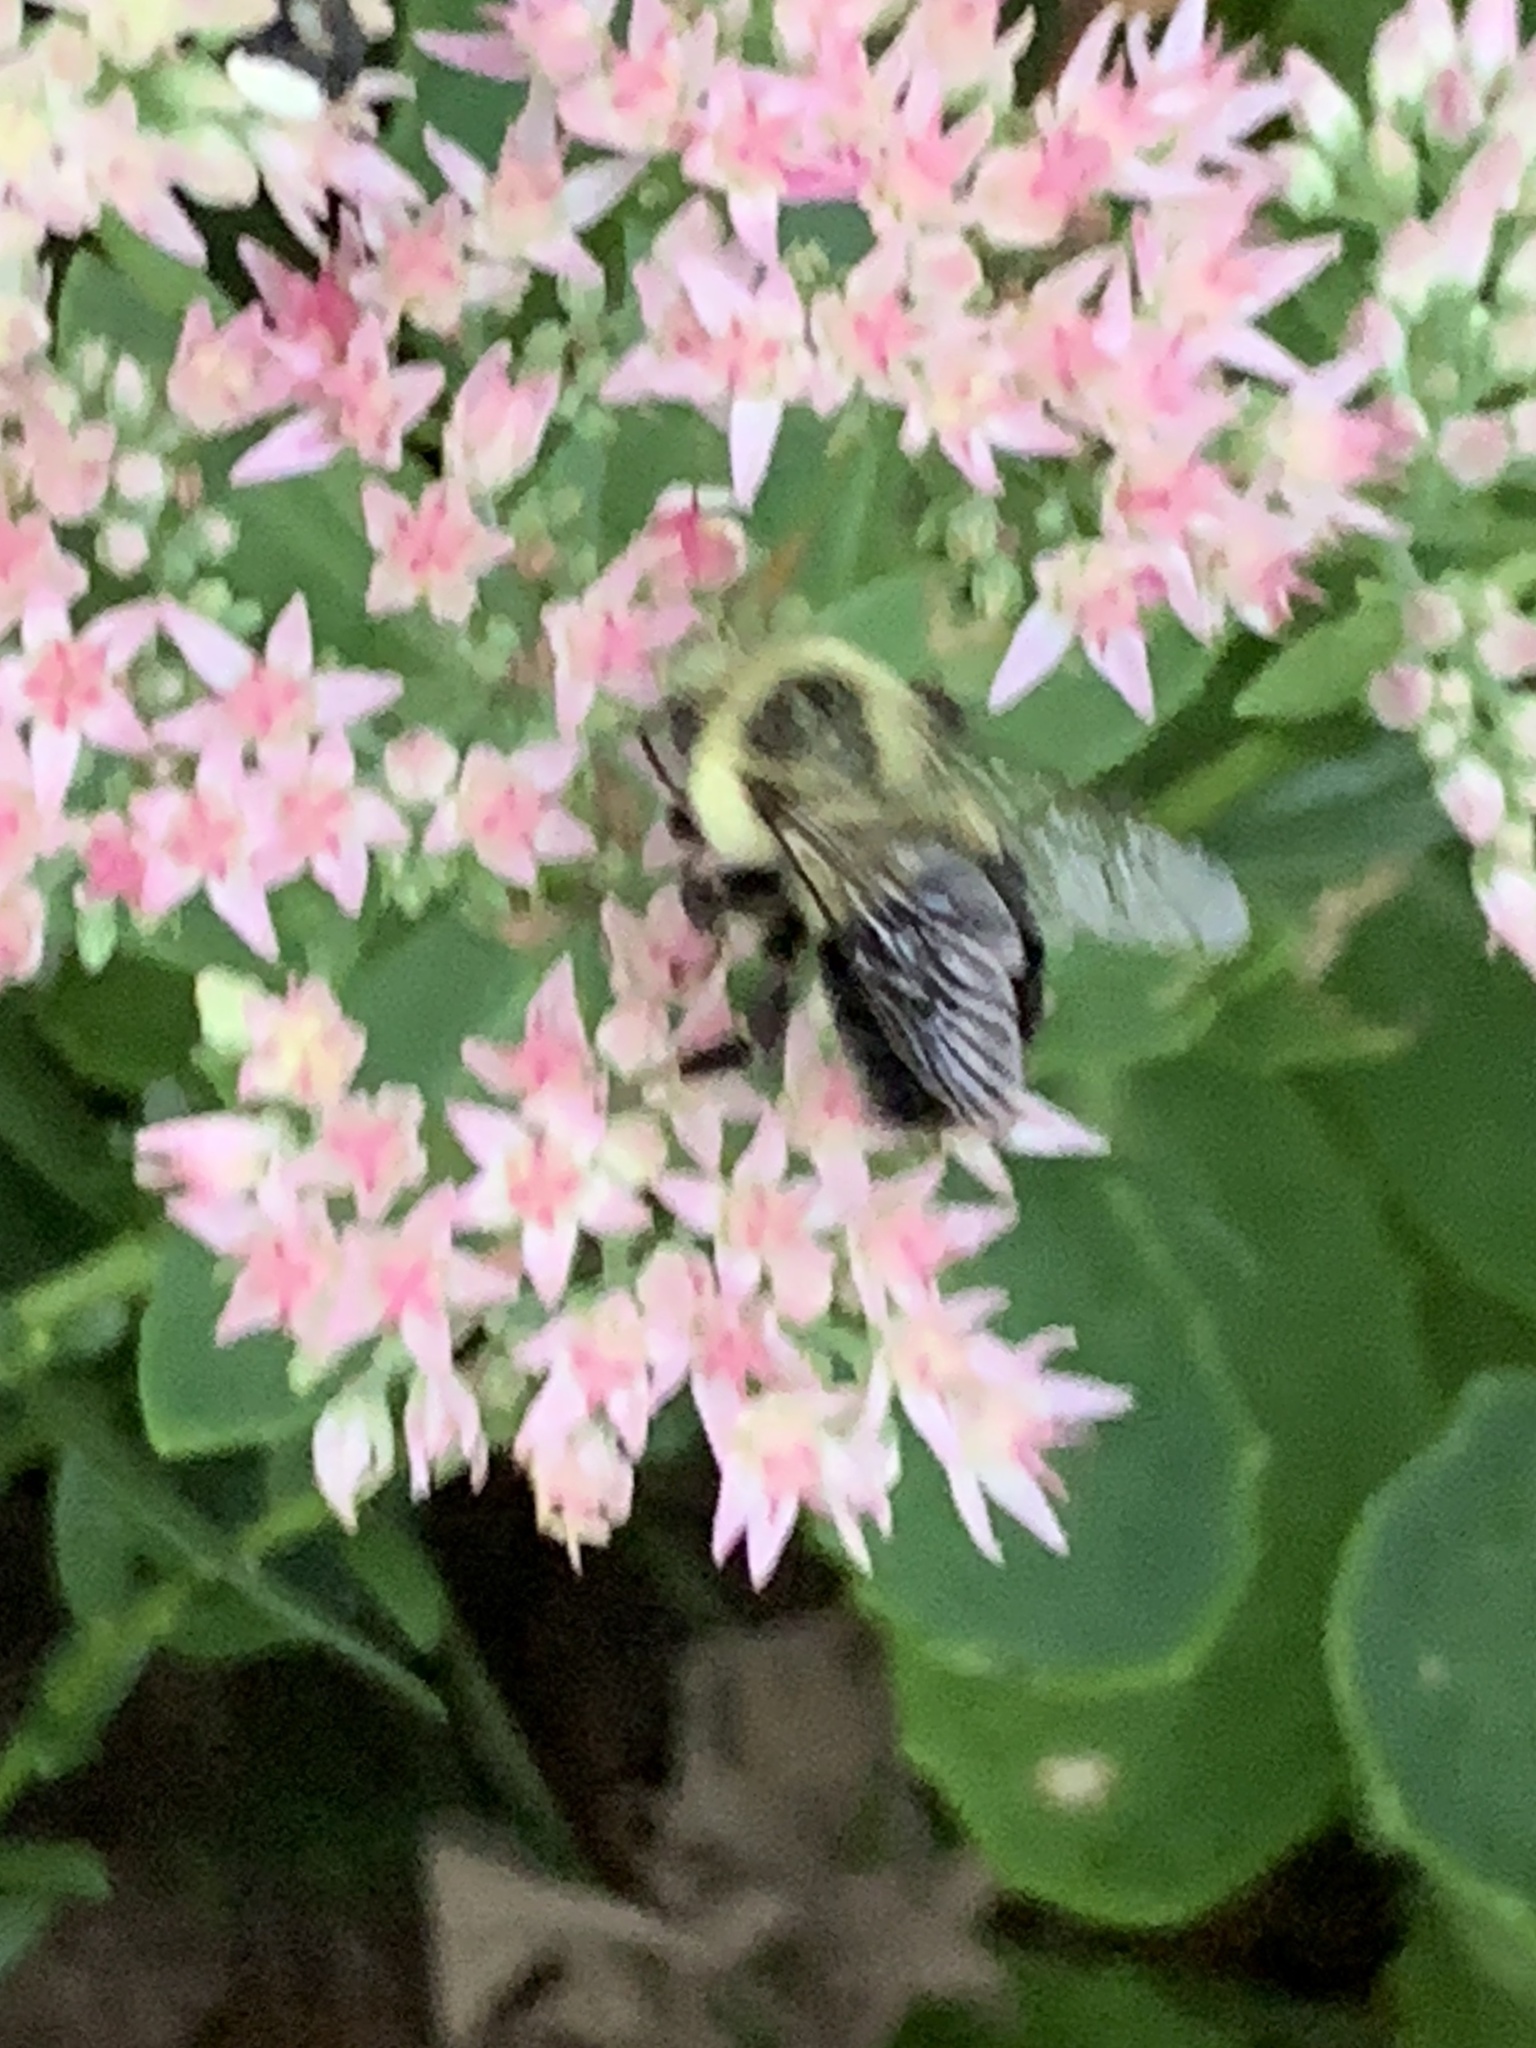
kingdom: Animalia
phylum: Arthropoda
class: Insecta
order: Hymenoptera
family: Apidae
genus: Bombus
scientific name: Bombus impatiens
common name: Common eastern bumble bee
